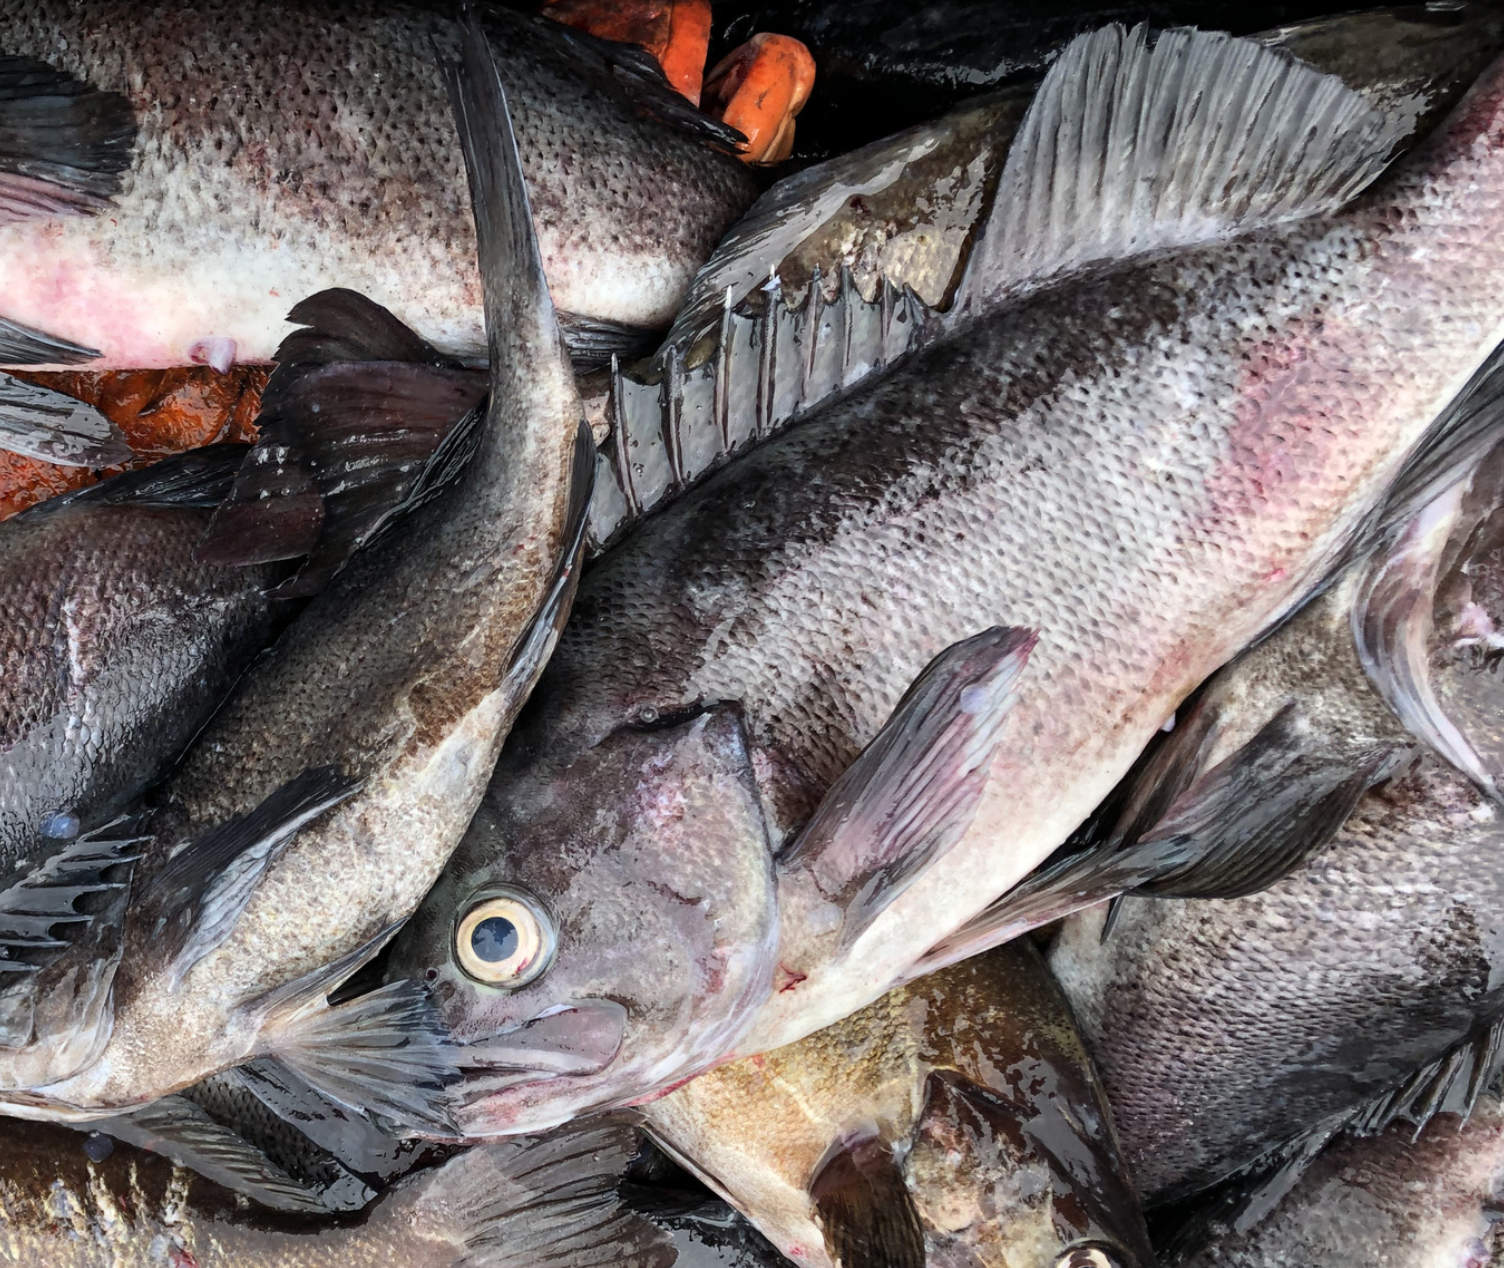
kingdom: Animalia
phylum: Chordata
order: Scorpaeniformes
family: Sebastidae
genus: Sebastes
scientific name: Sebastes melanops
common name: Black rockfish
